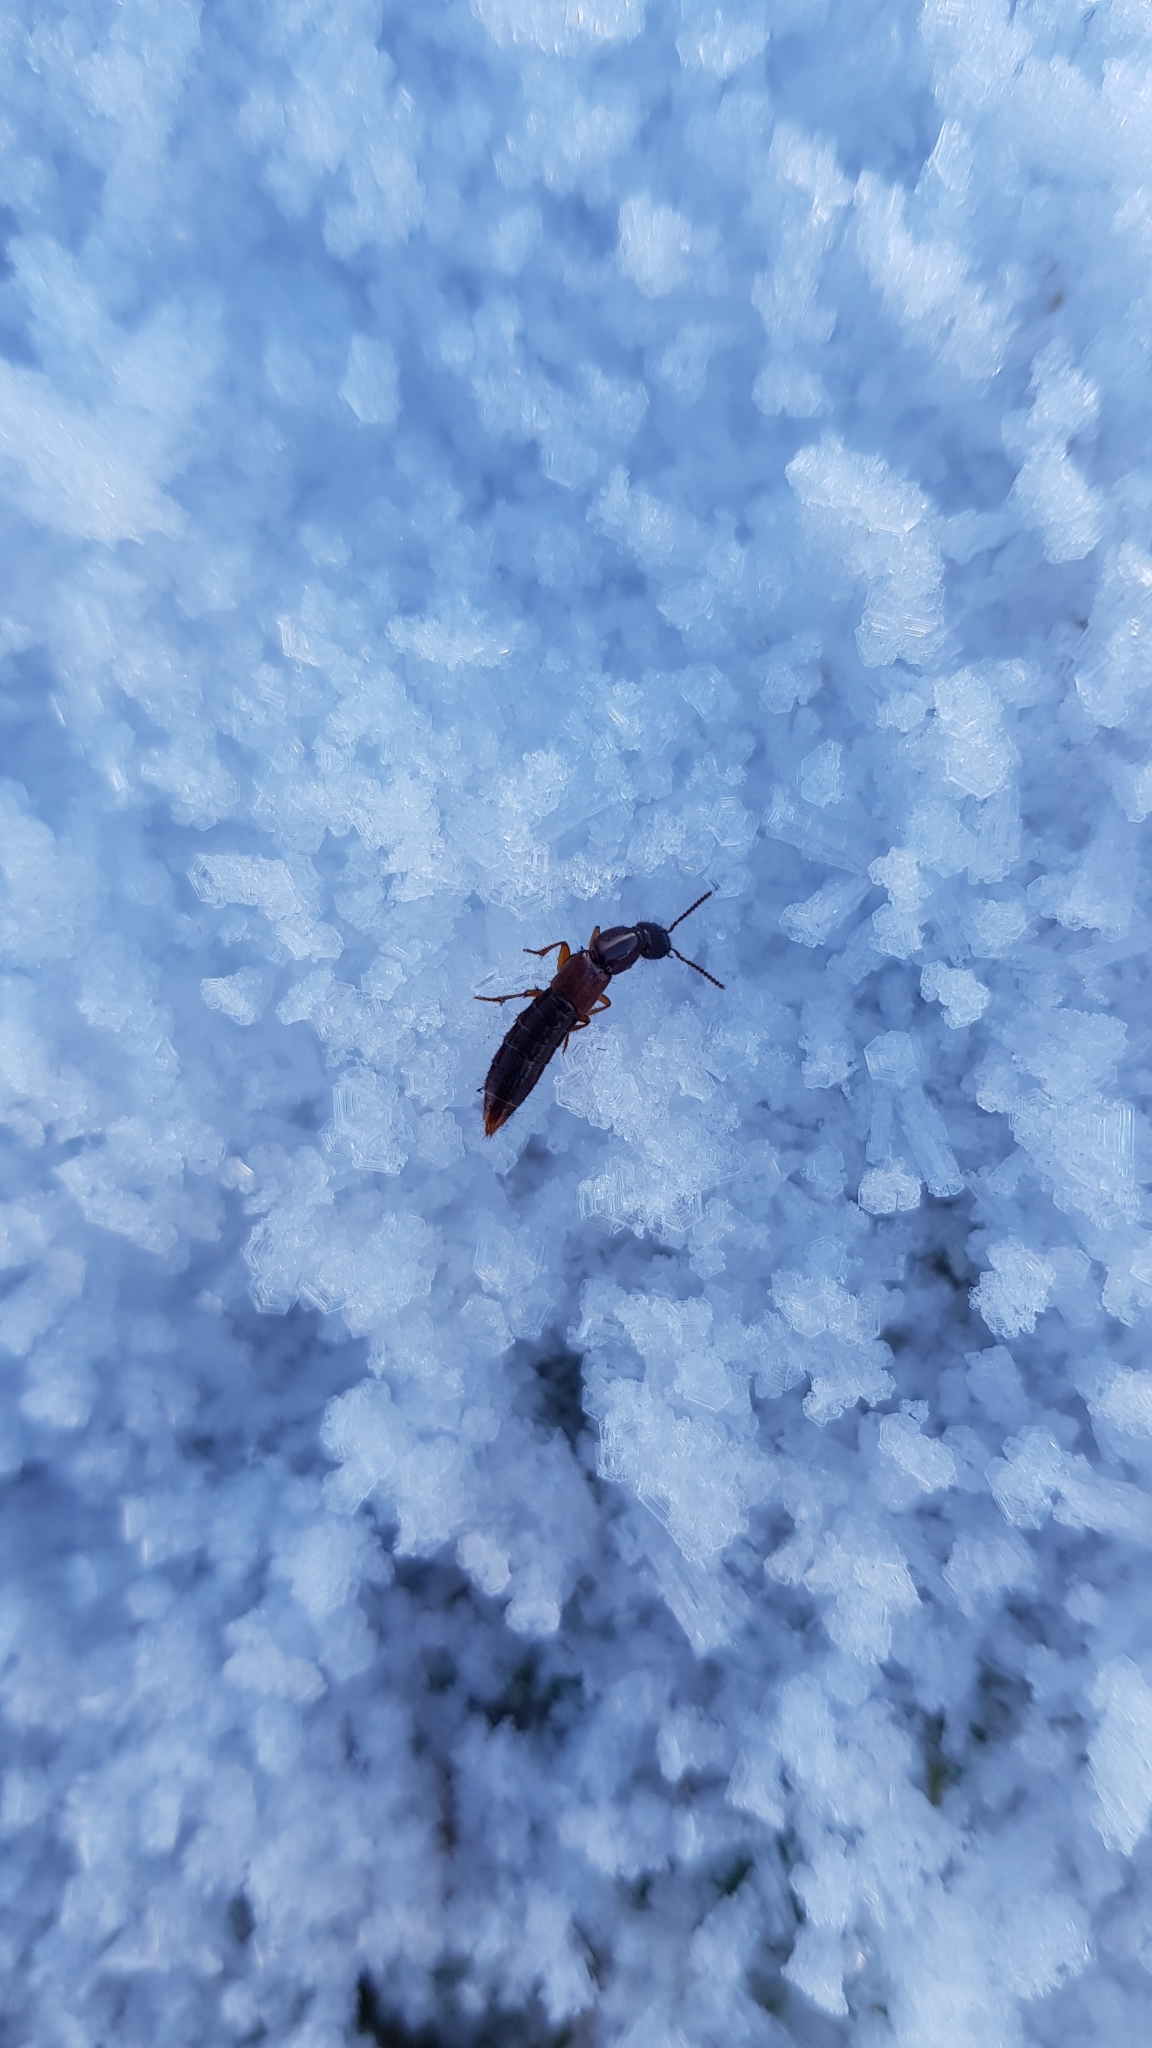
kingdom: Animalia
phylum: Arthropoda
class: Insecta
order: Coleoptera
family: Staphylinidae
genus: Othius
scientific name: Othius punctulatus
